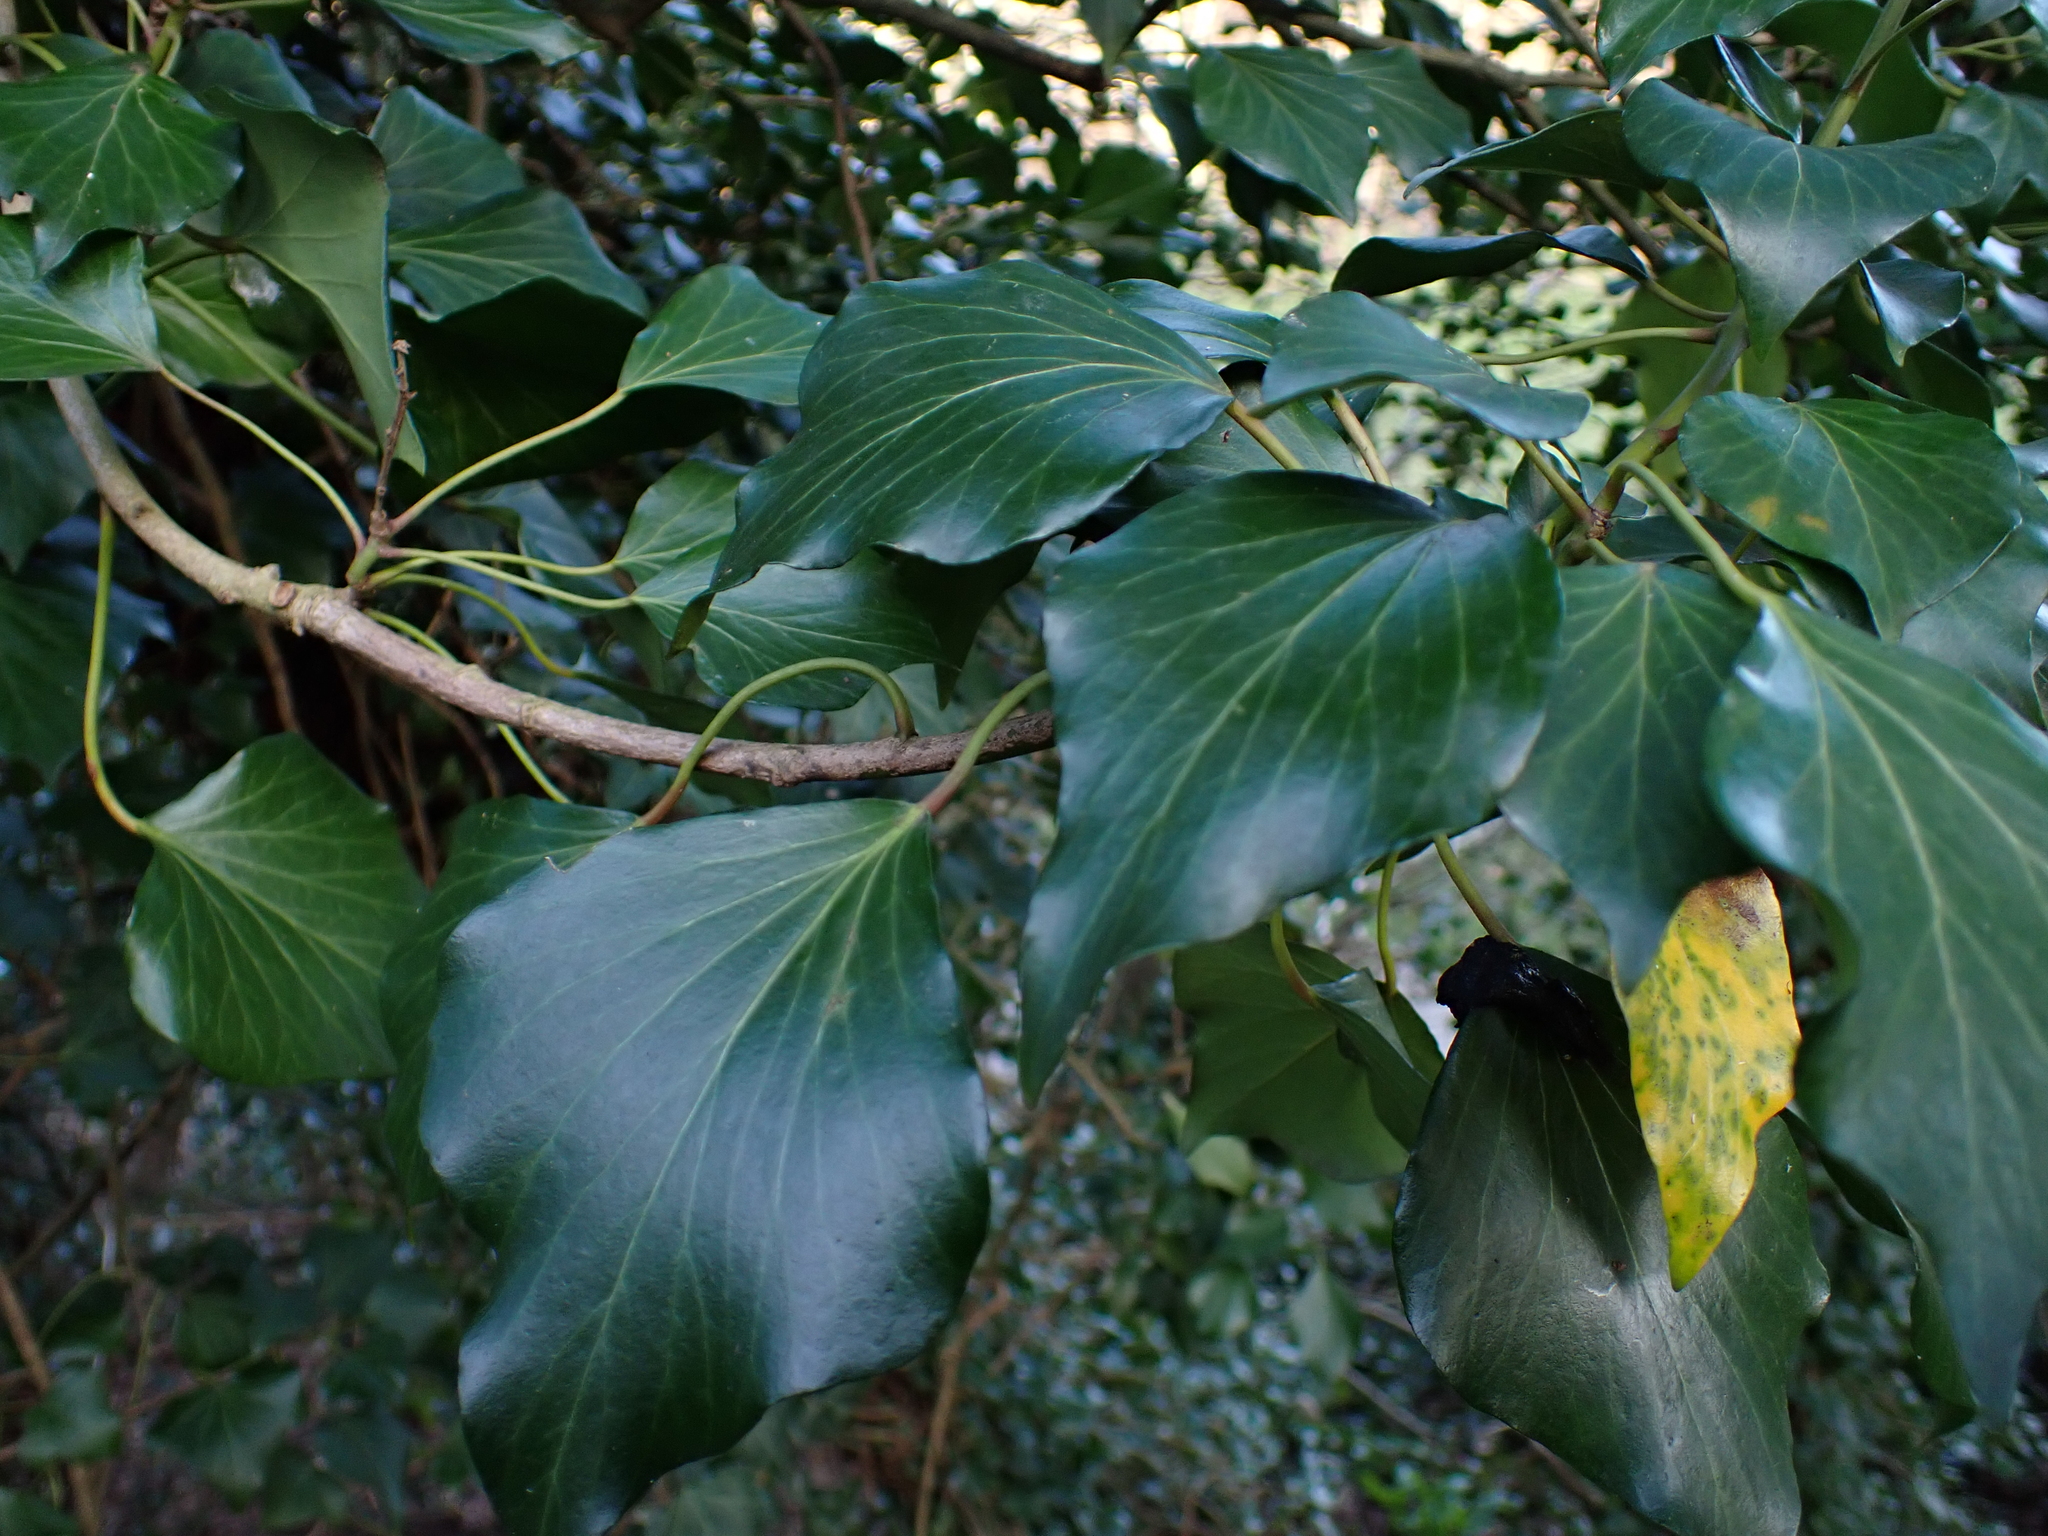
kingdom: Plantae
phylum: Tracheophyta
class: Magnoliopsida
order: Apiales
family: Araliaceae
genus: Hedera
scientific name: Hedera helix
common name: Ivy
